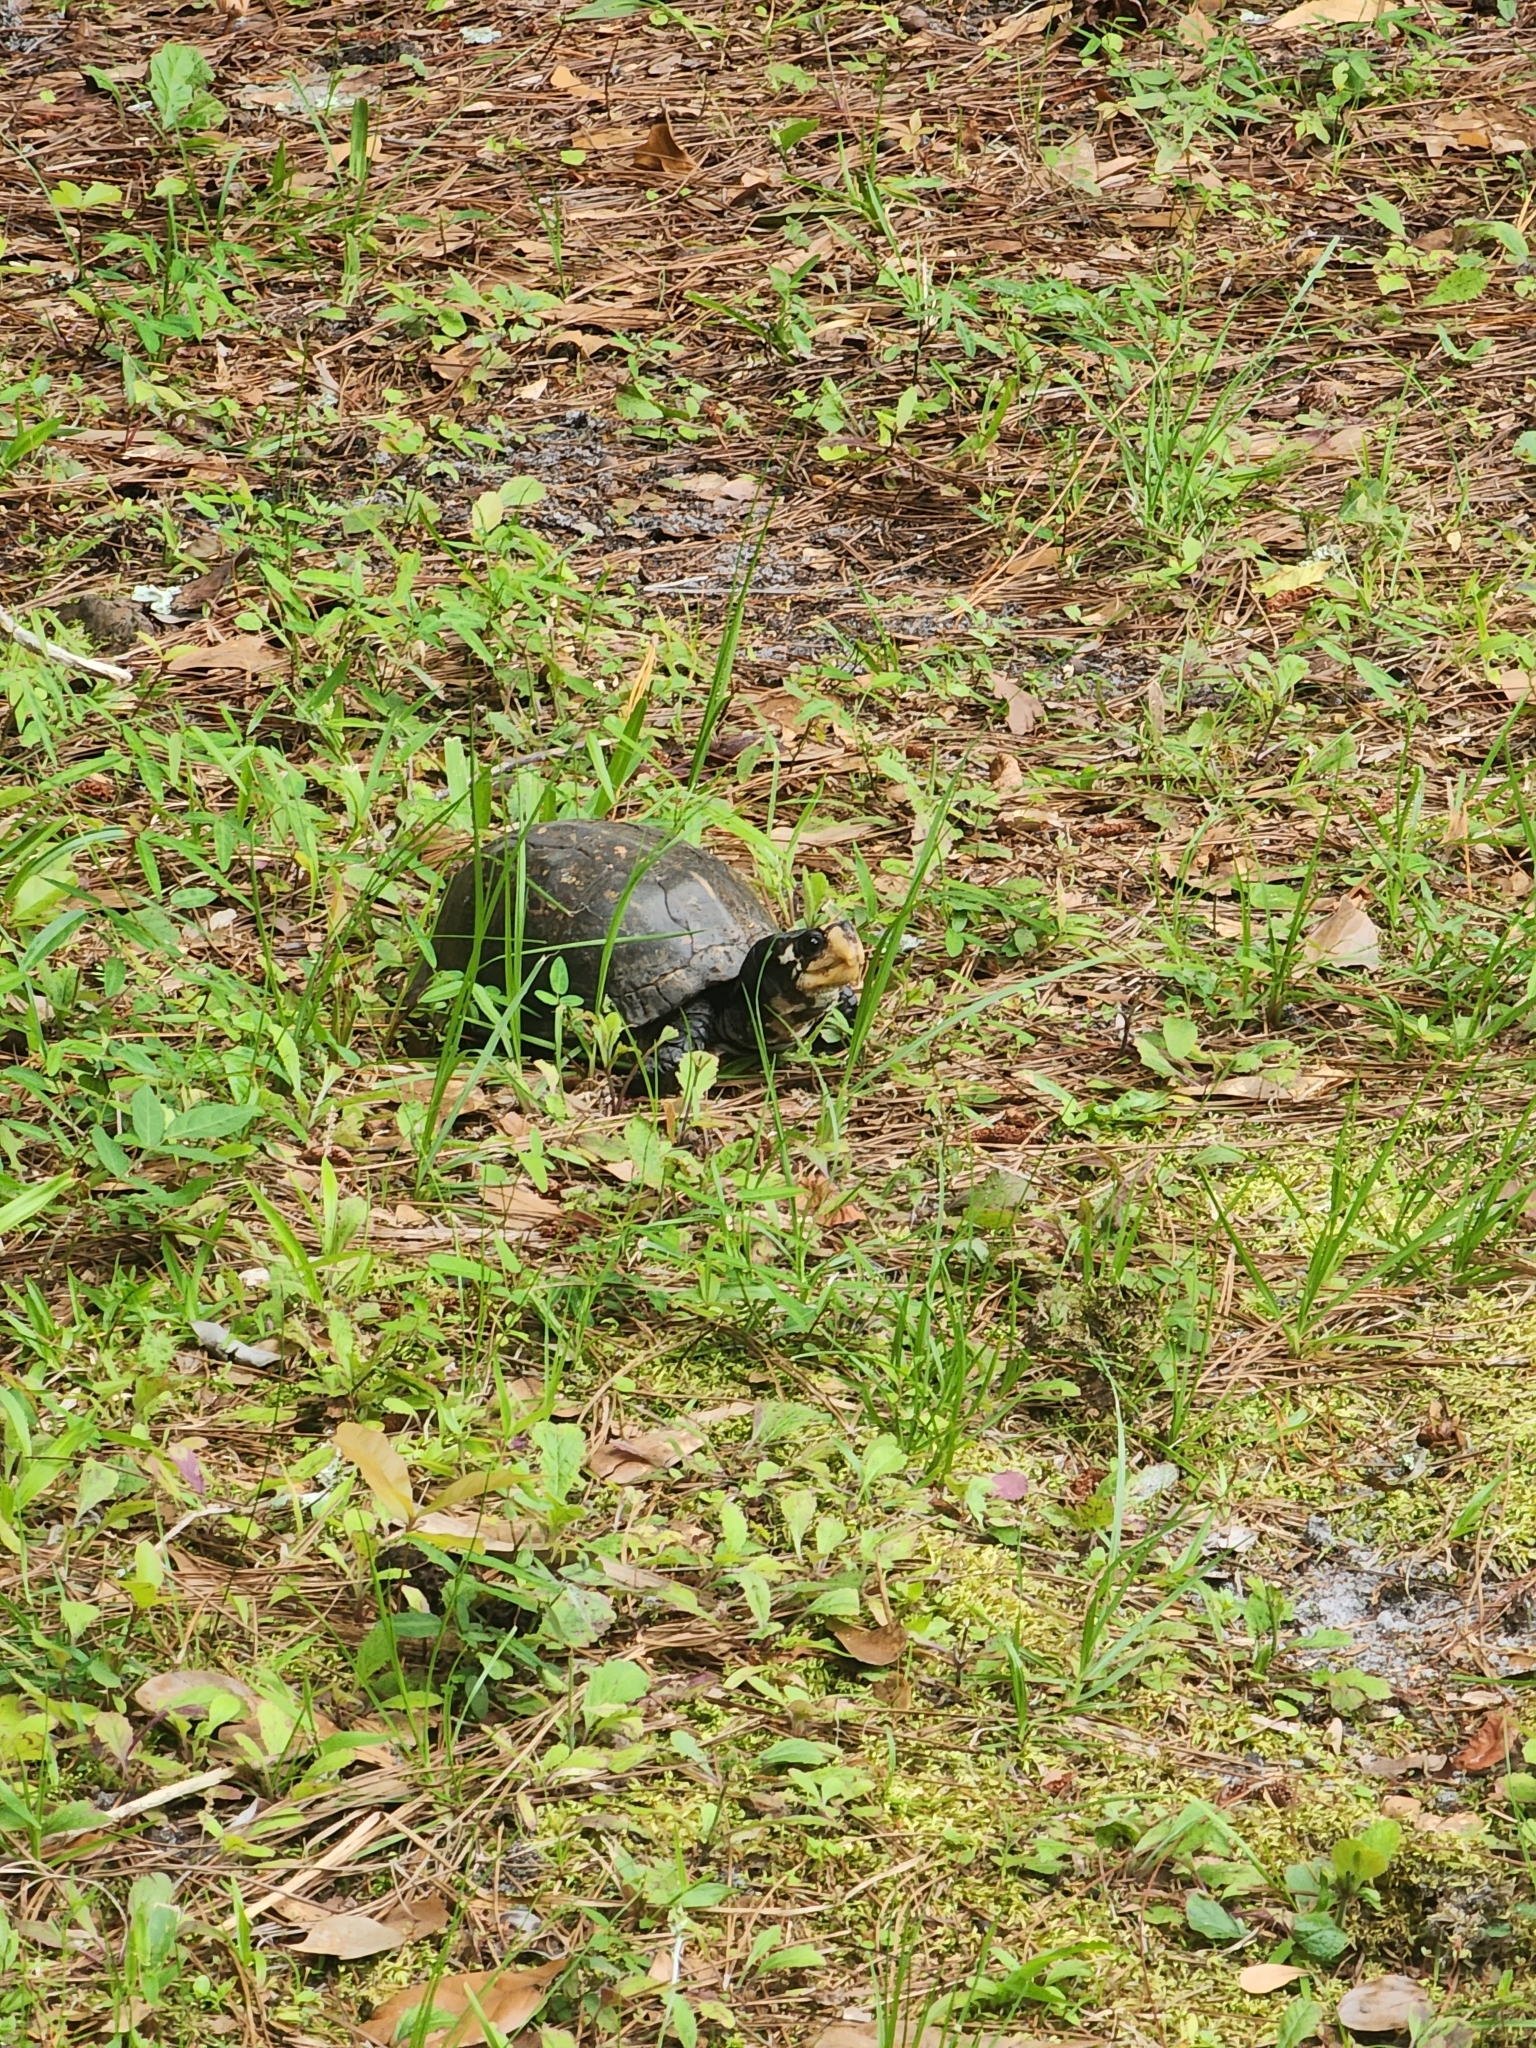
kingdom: Animalia
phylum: Chordata
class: Testudines
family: Emydidae
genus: Terrapene
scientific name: Terrapene carolina
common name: Common box turtle
